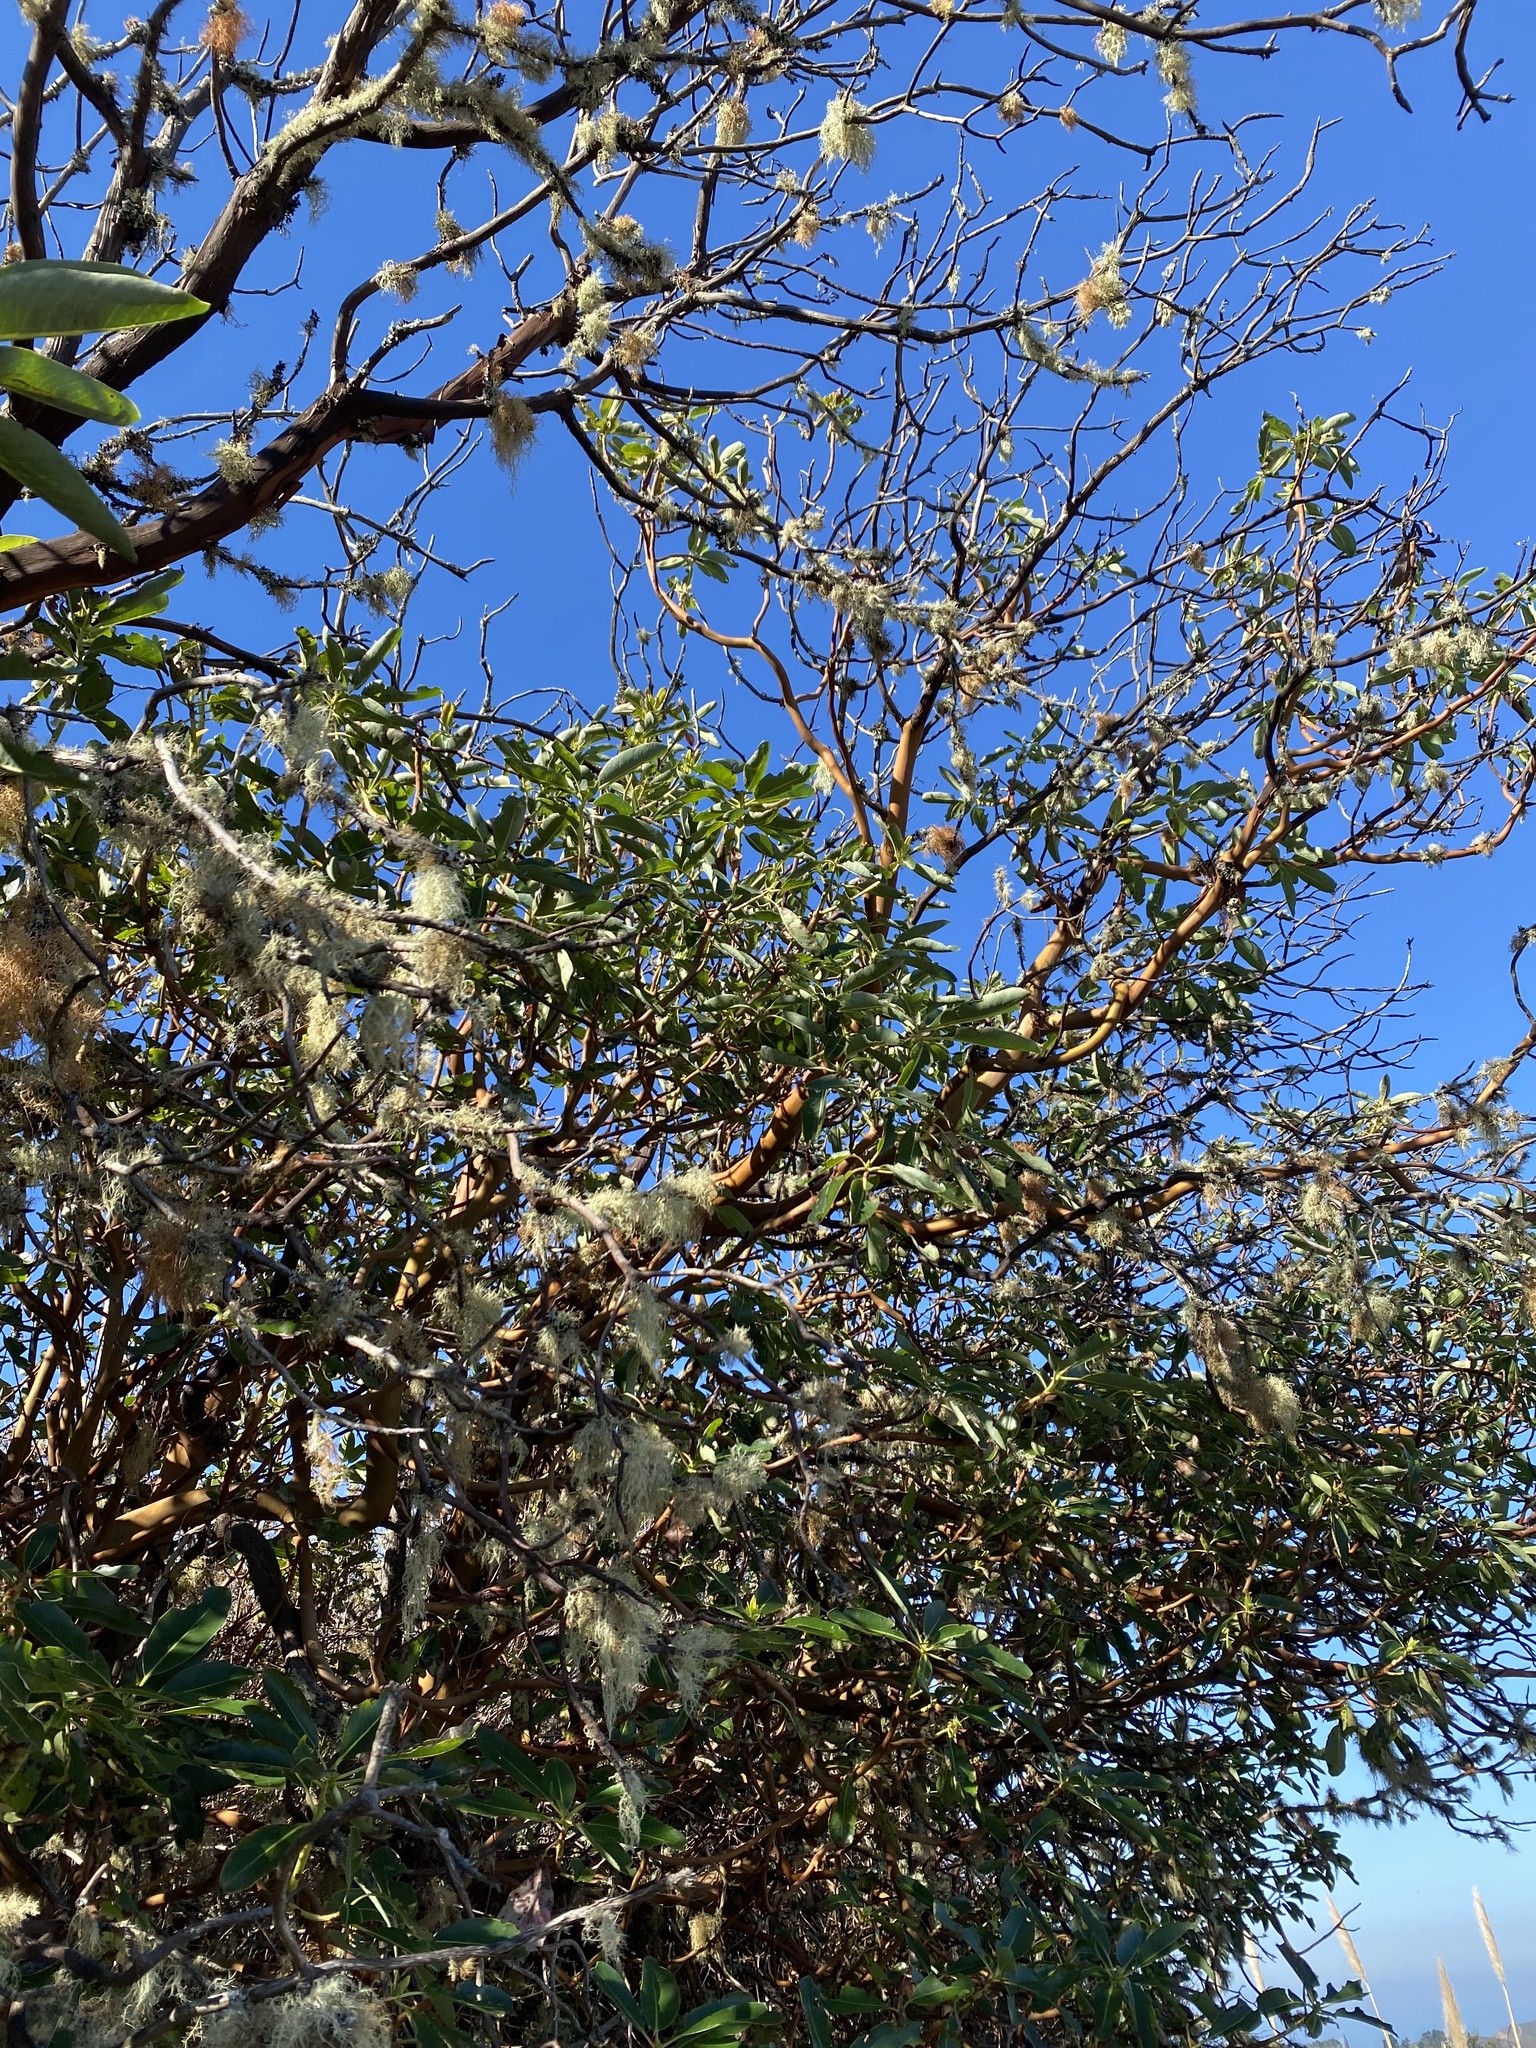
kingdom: Plantae
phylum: Tracheophyta
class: Magnoliopsida
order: Ericales
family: Ericaceae
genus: Arbutus
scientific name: Arbutus menziesii
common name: Pacific madrone
